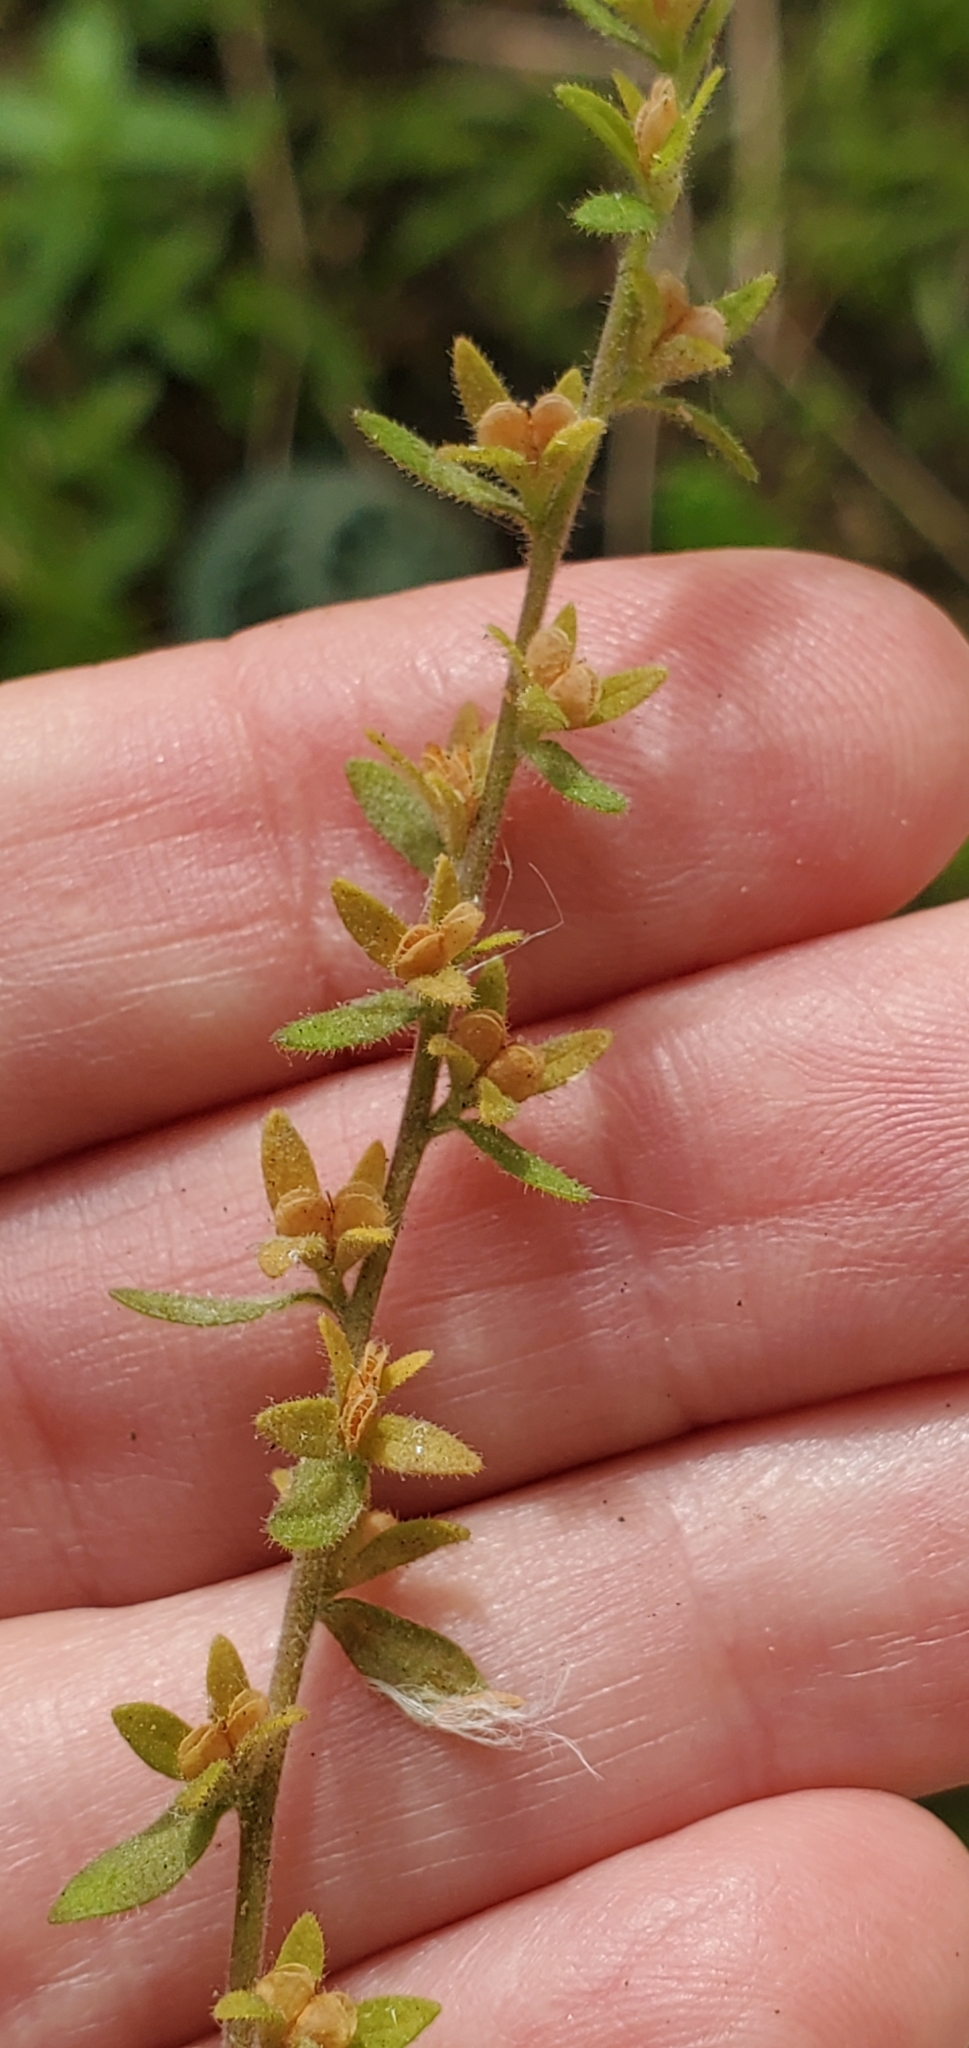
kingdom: Plantae
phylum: Tracheophyta
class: Magnoliopsida
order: Lamiales
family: Plantaginaceae
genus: Veronica
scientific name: Veronica arvensis
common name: Corn speedwell
